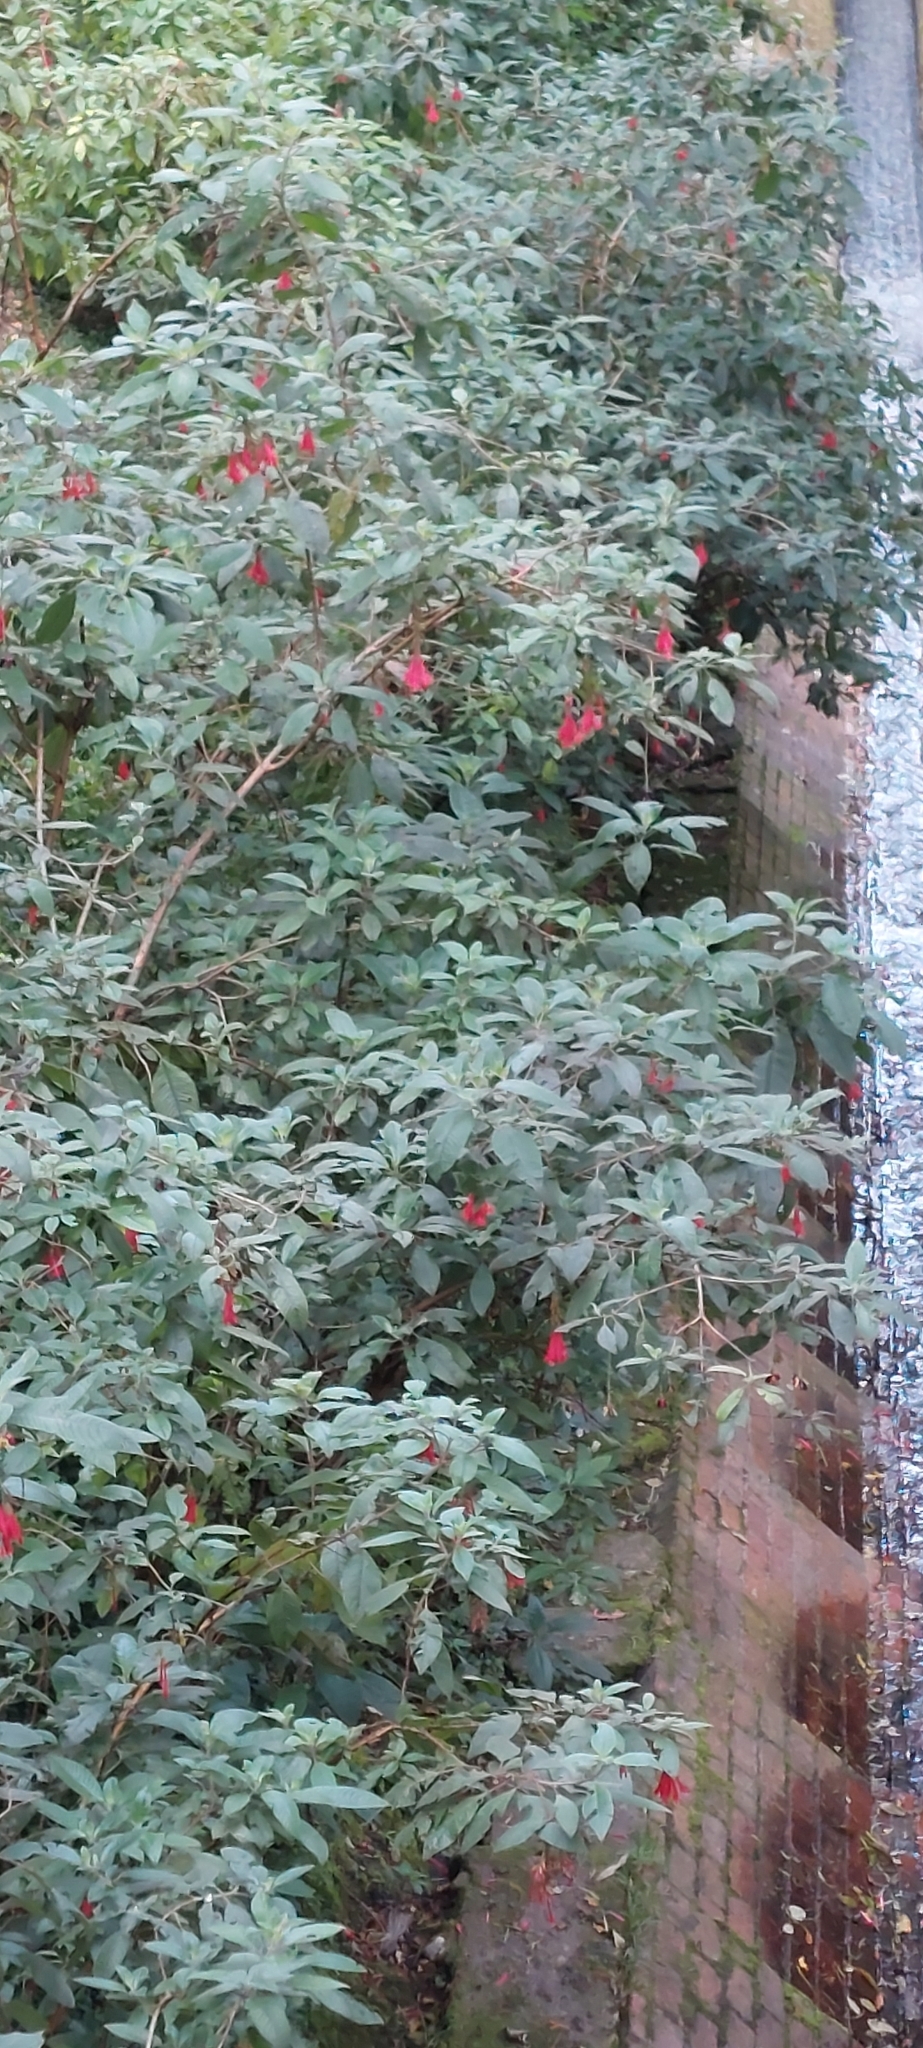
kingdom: Plantae
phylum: Tracheophyta
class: Magnoliopsida
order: Myrtales
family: Onagraceae
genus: Fuchsia
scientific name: Fuchsia boliviana
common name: Bolivian fuchsia
